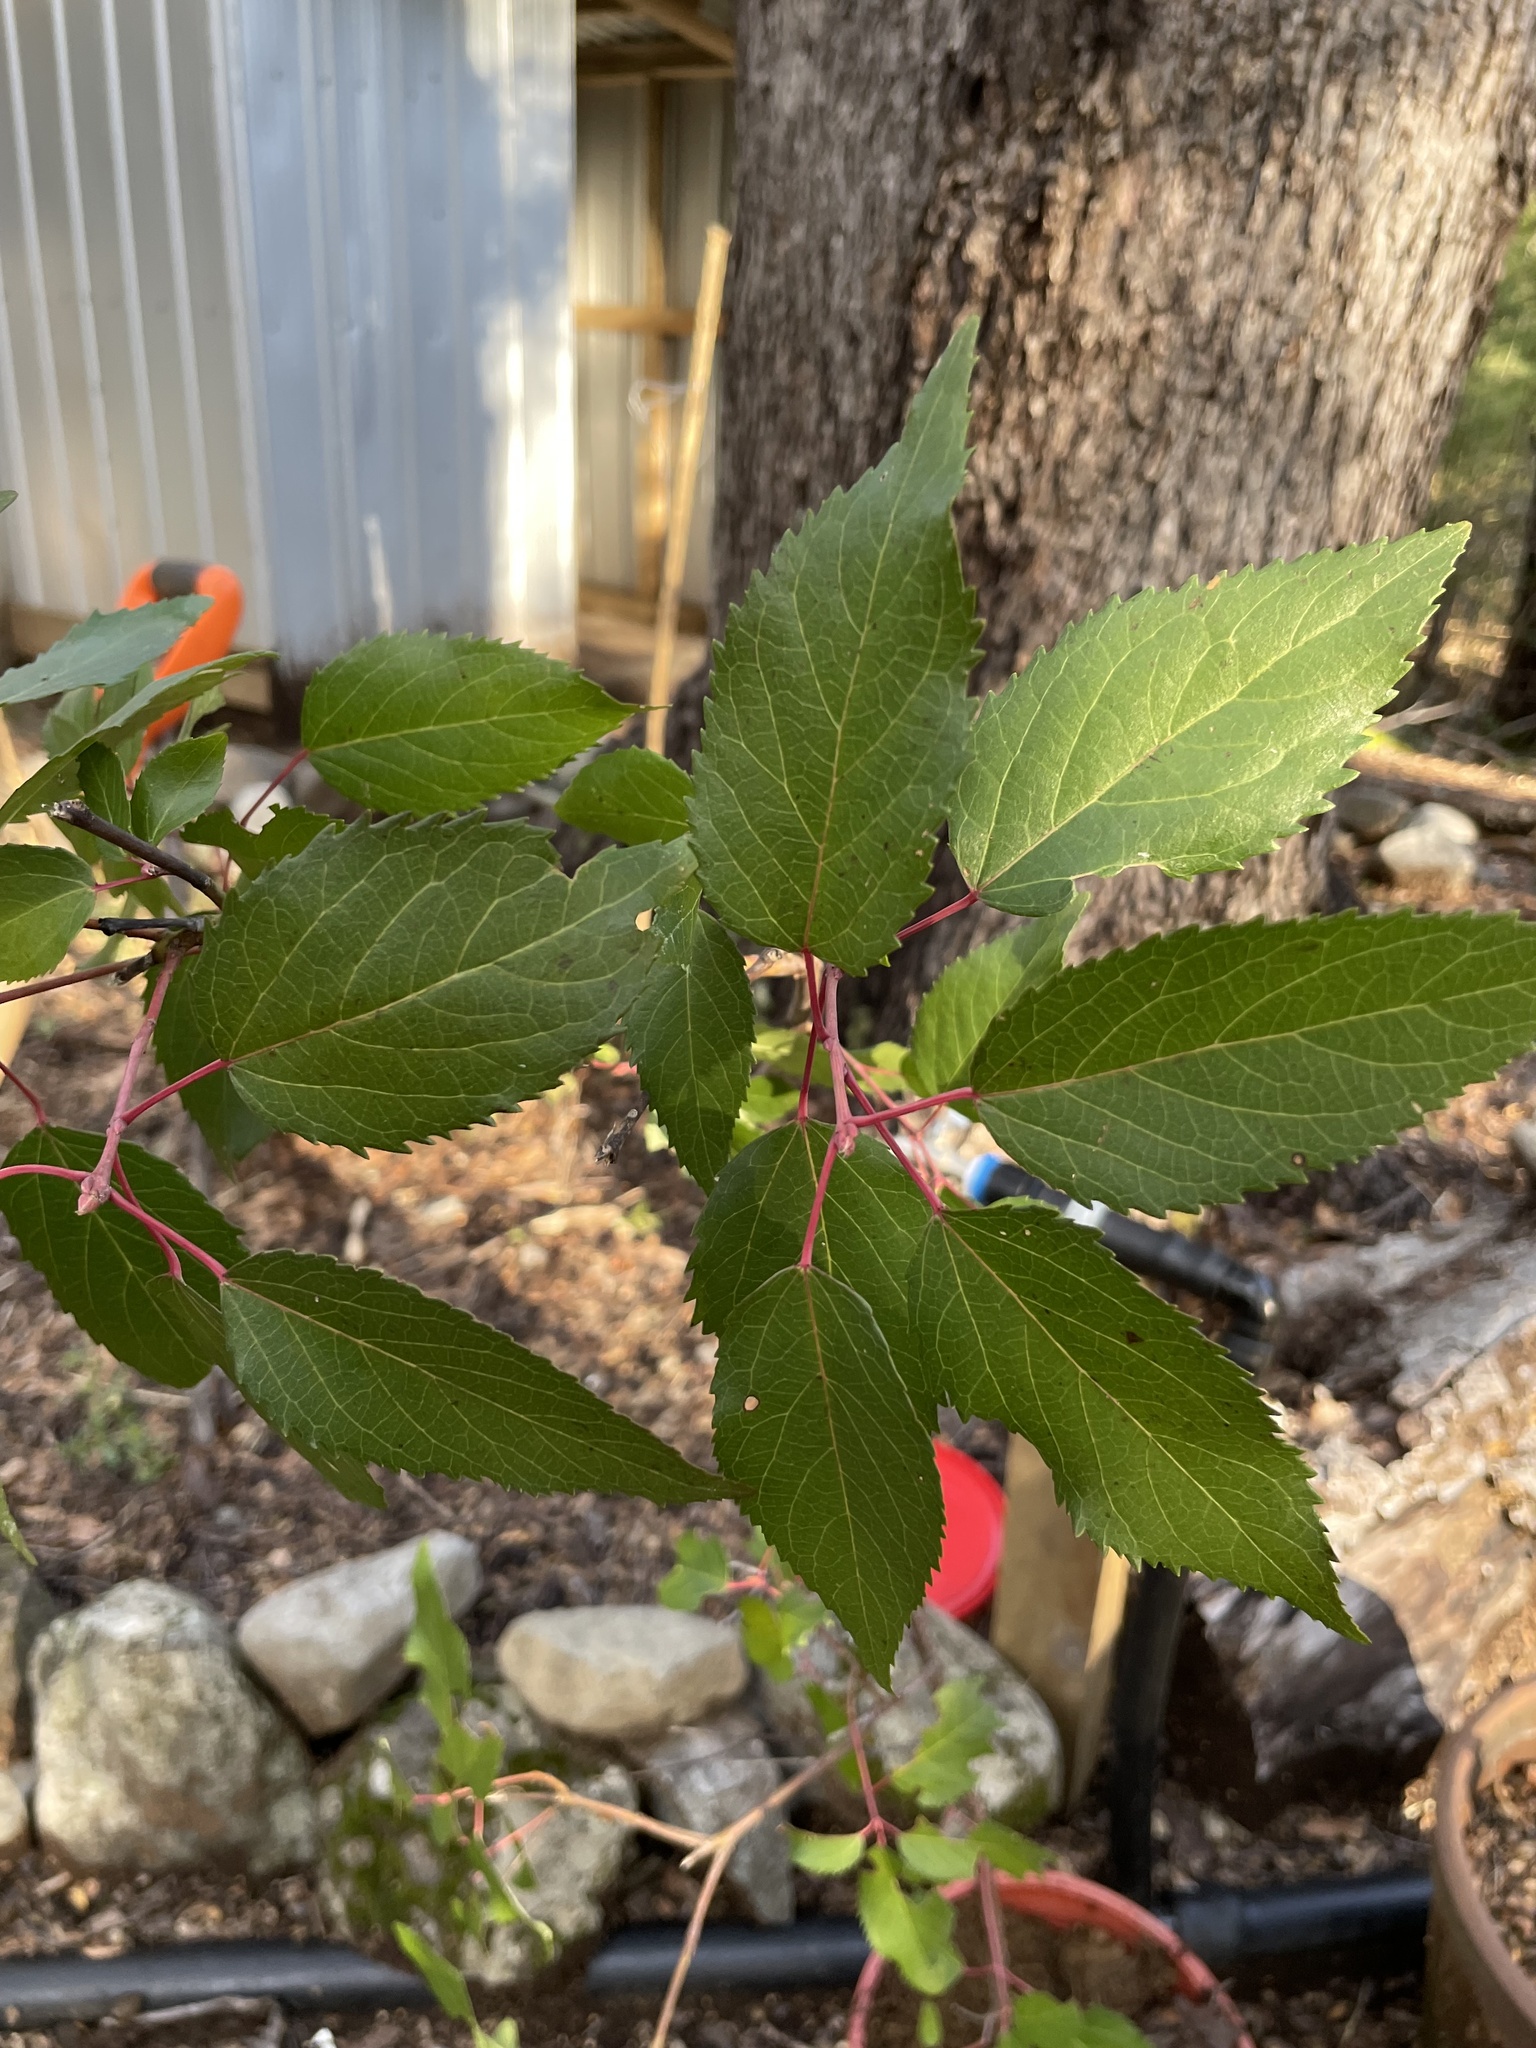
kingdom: Plantae
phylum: Tracheophyta
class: Magnoliopsida
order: Oxalidales
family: Elaeocarpaceae
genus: Aristotelia
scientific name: Aristotelia chilensis
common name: Maquei
